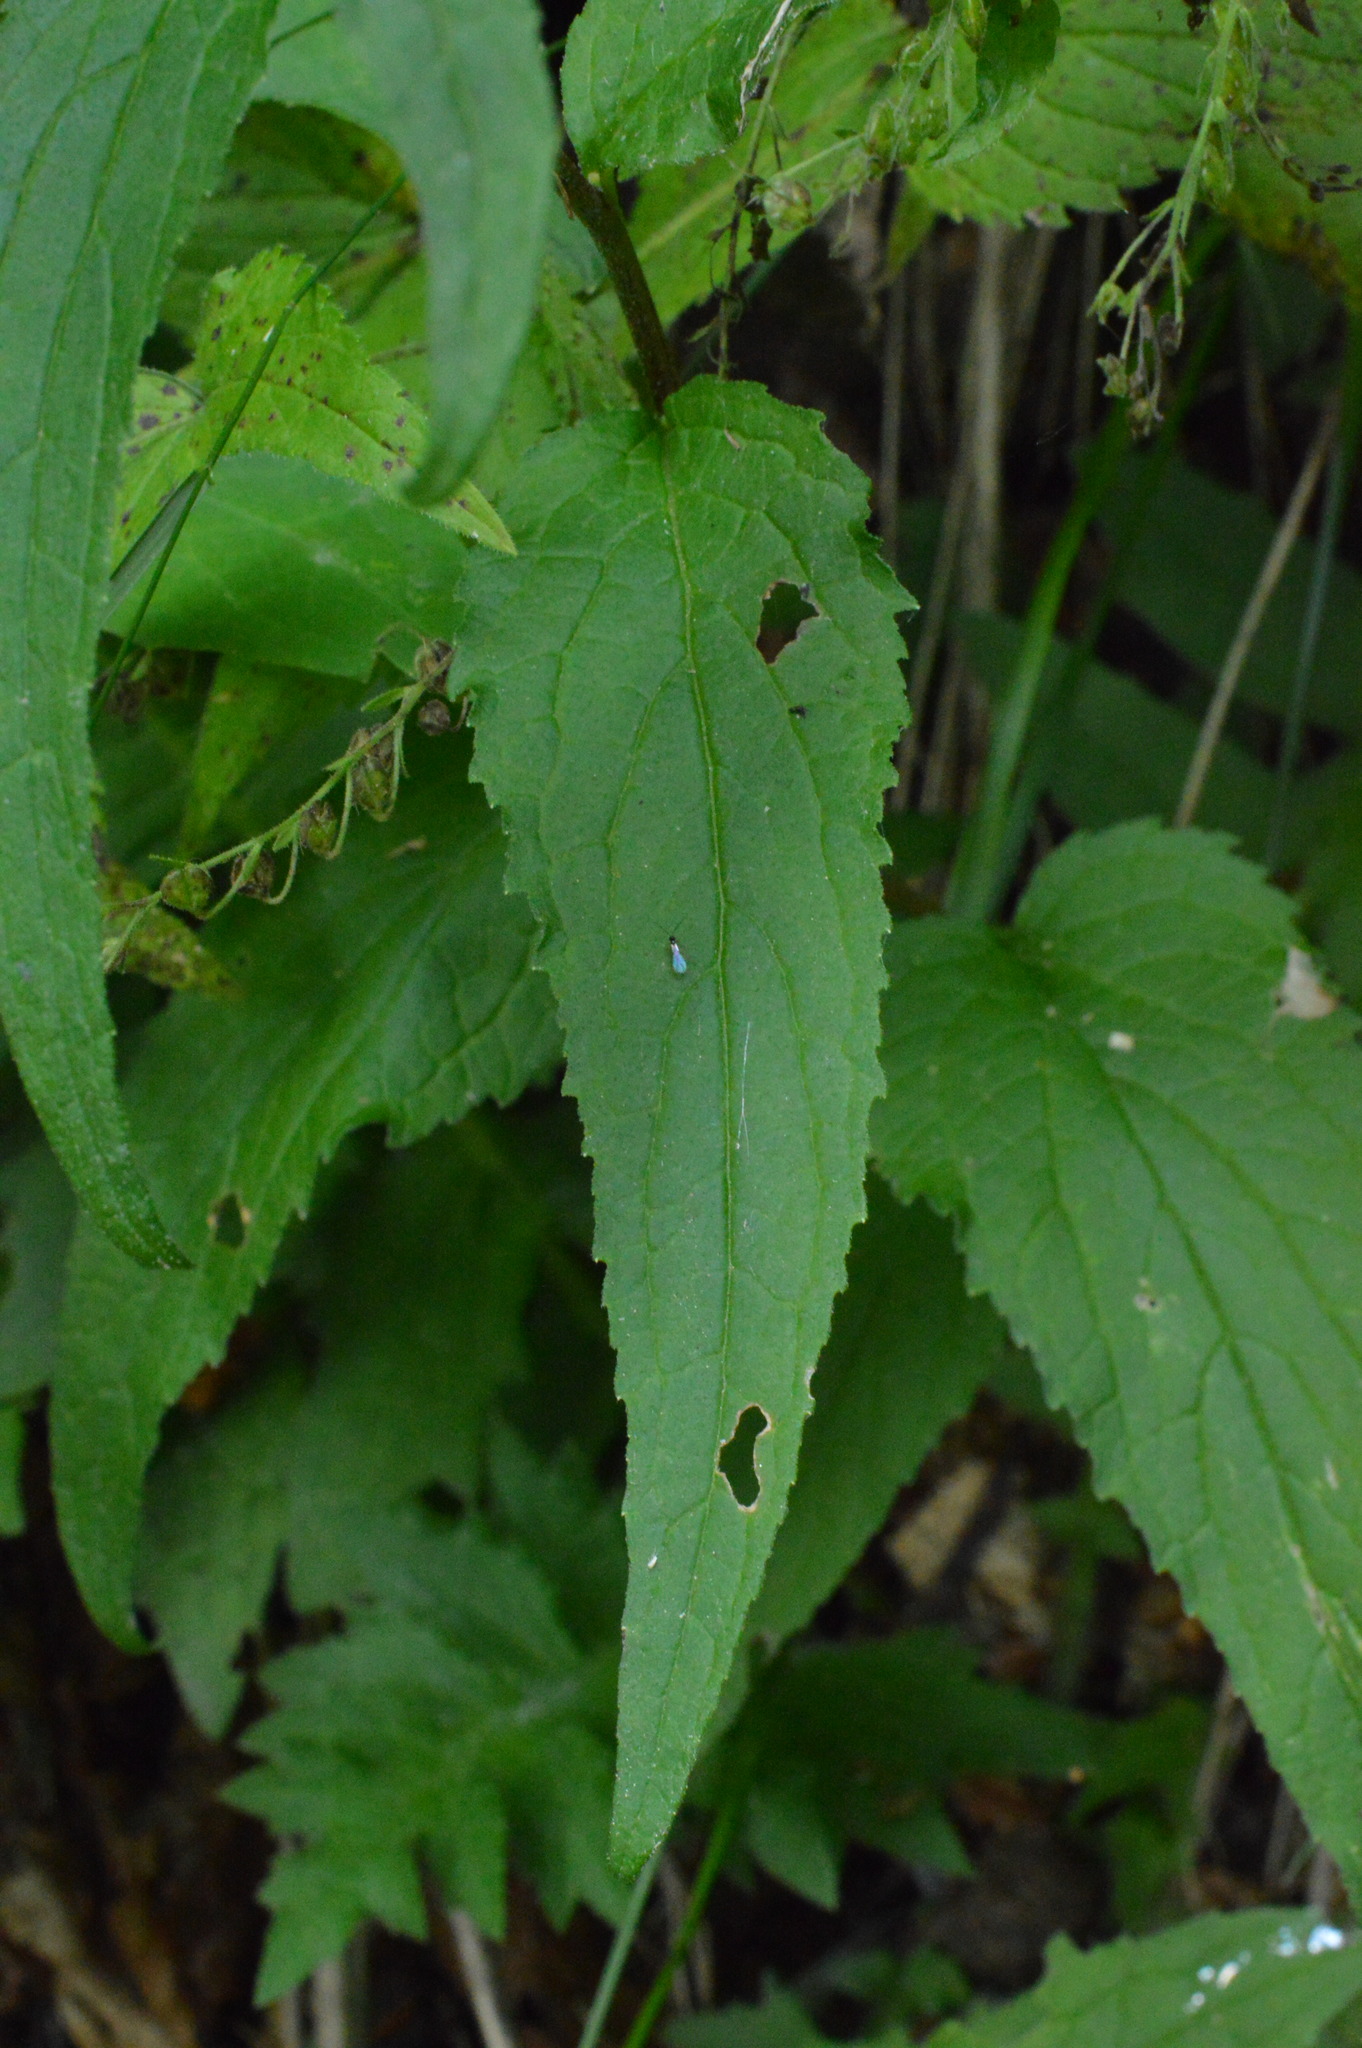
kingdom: Plantae
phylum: Tracheophyta
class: Magnoliopsida
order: Asterales
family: Campanulaceae
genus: Campanula
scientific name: Campanula rapunculoides
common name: Creeping bellflower
